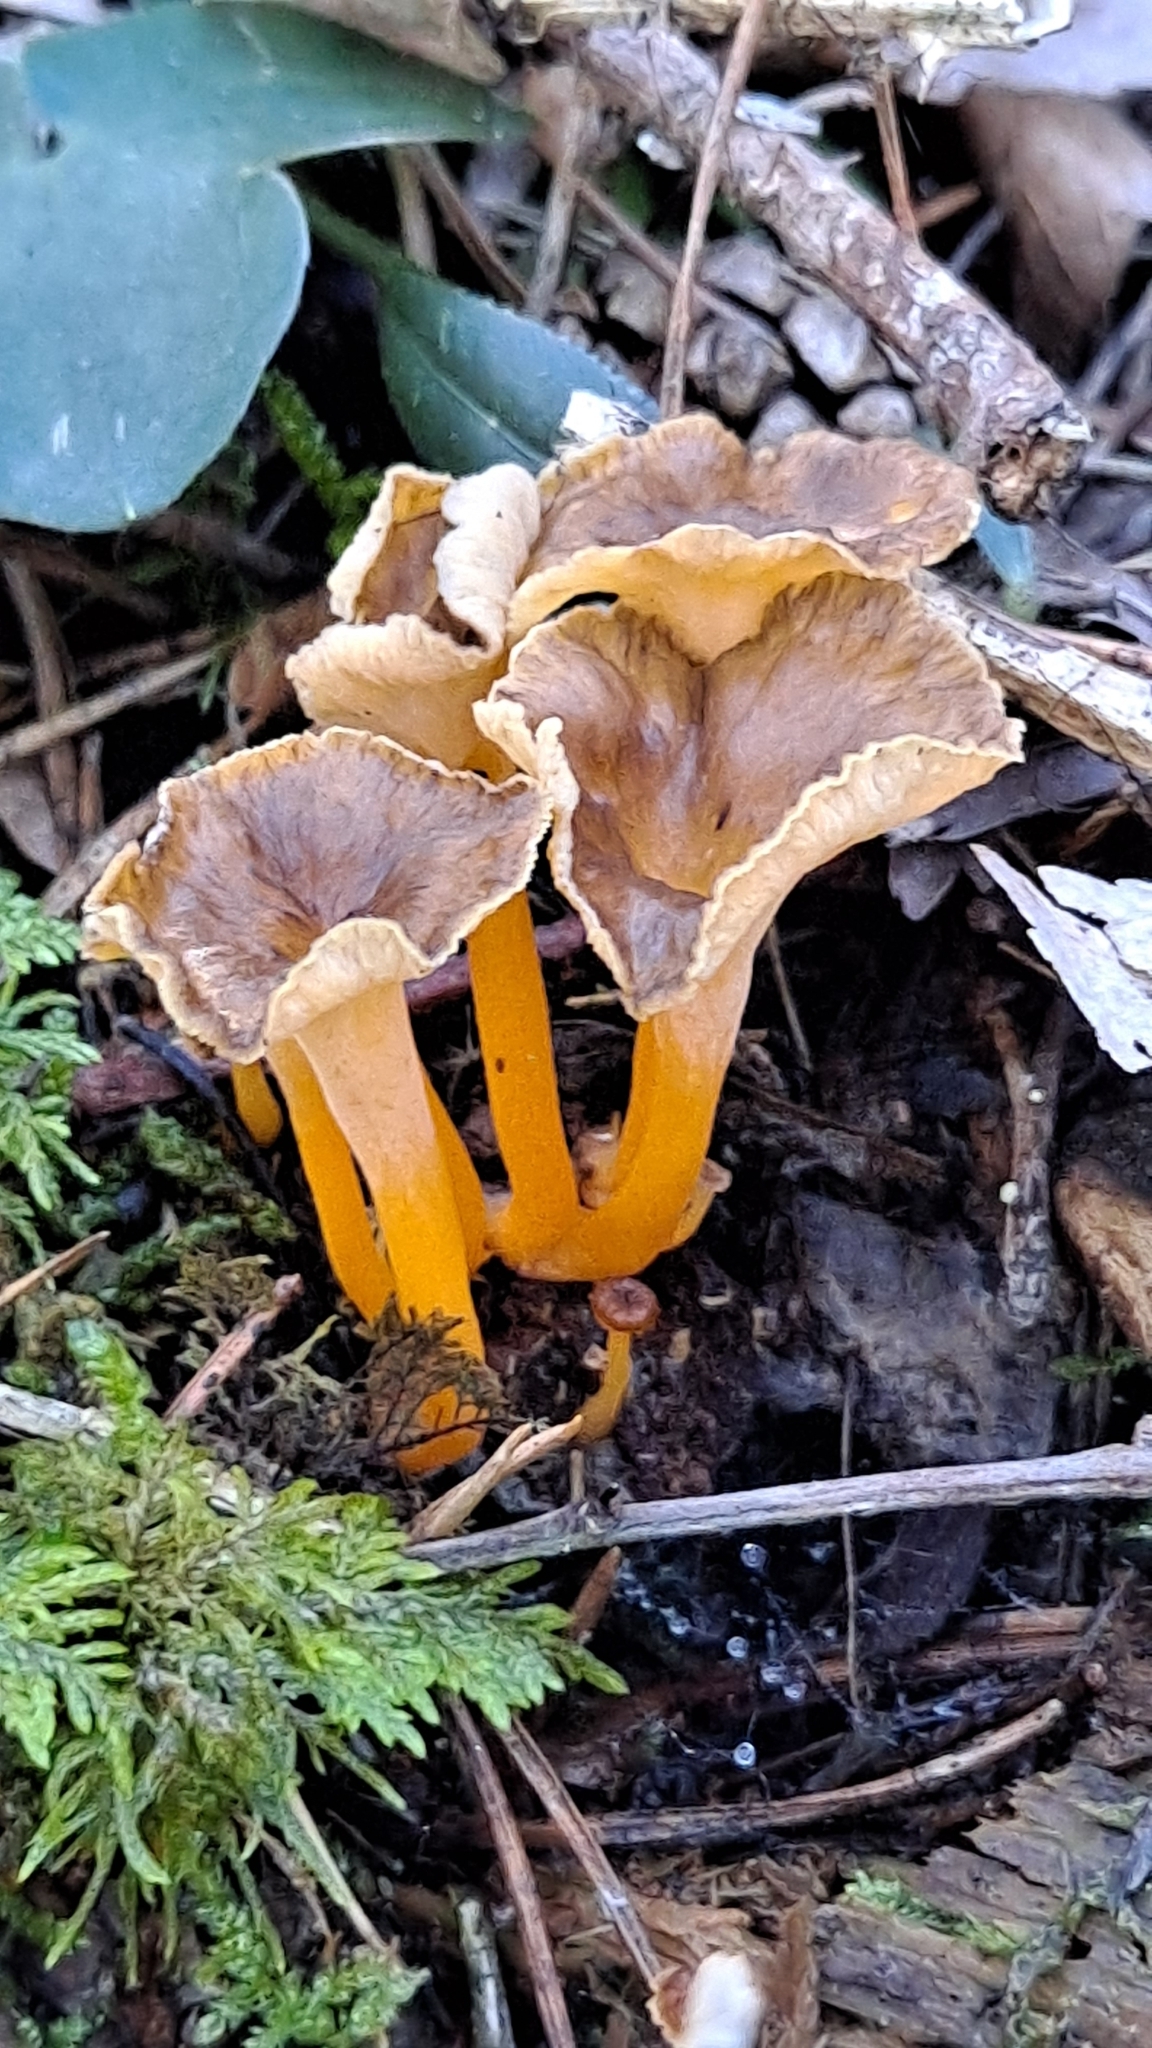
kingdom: Fungi
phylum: Basidiomycota
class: Agaricomycetes
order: Cantharellales
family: Hydnaceae
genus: Craterellus
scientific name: Craterellus lutescens
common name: Golden chanterelle
